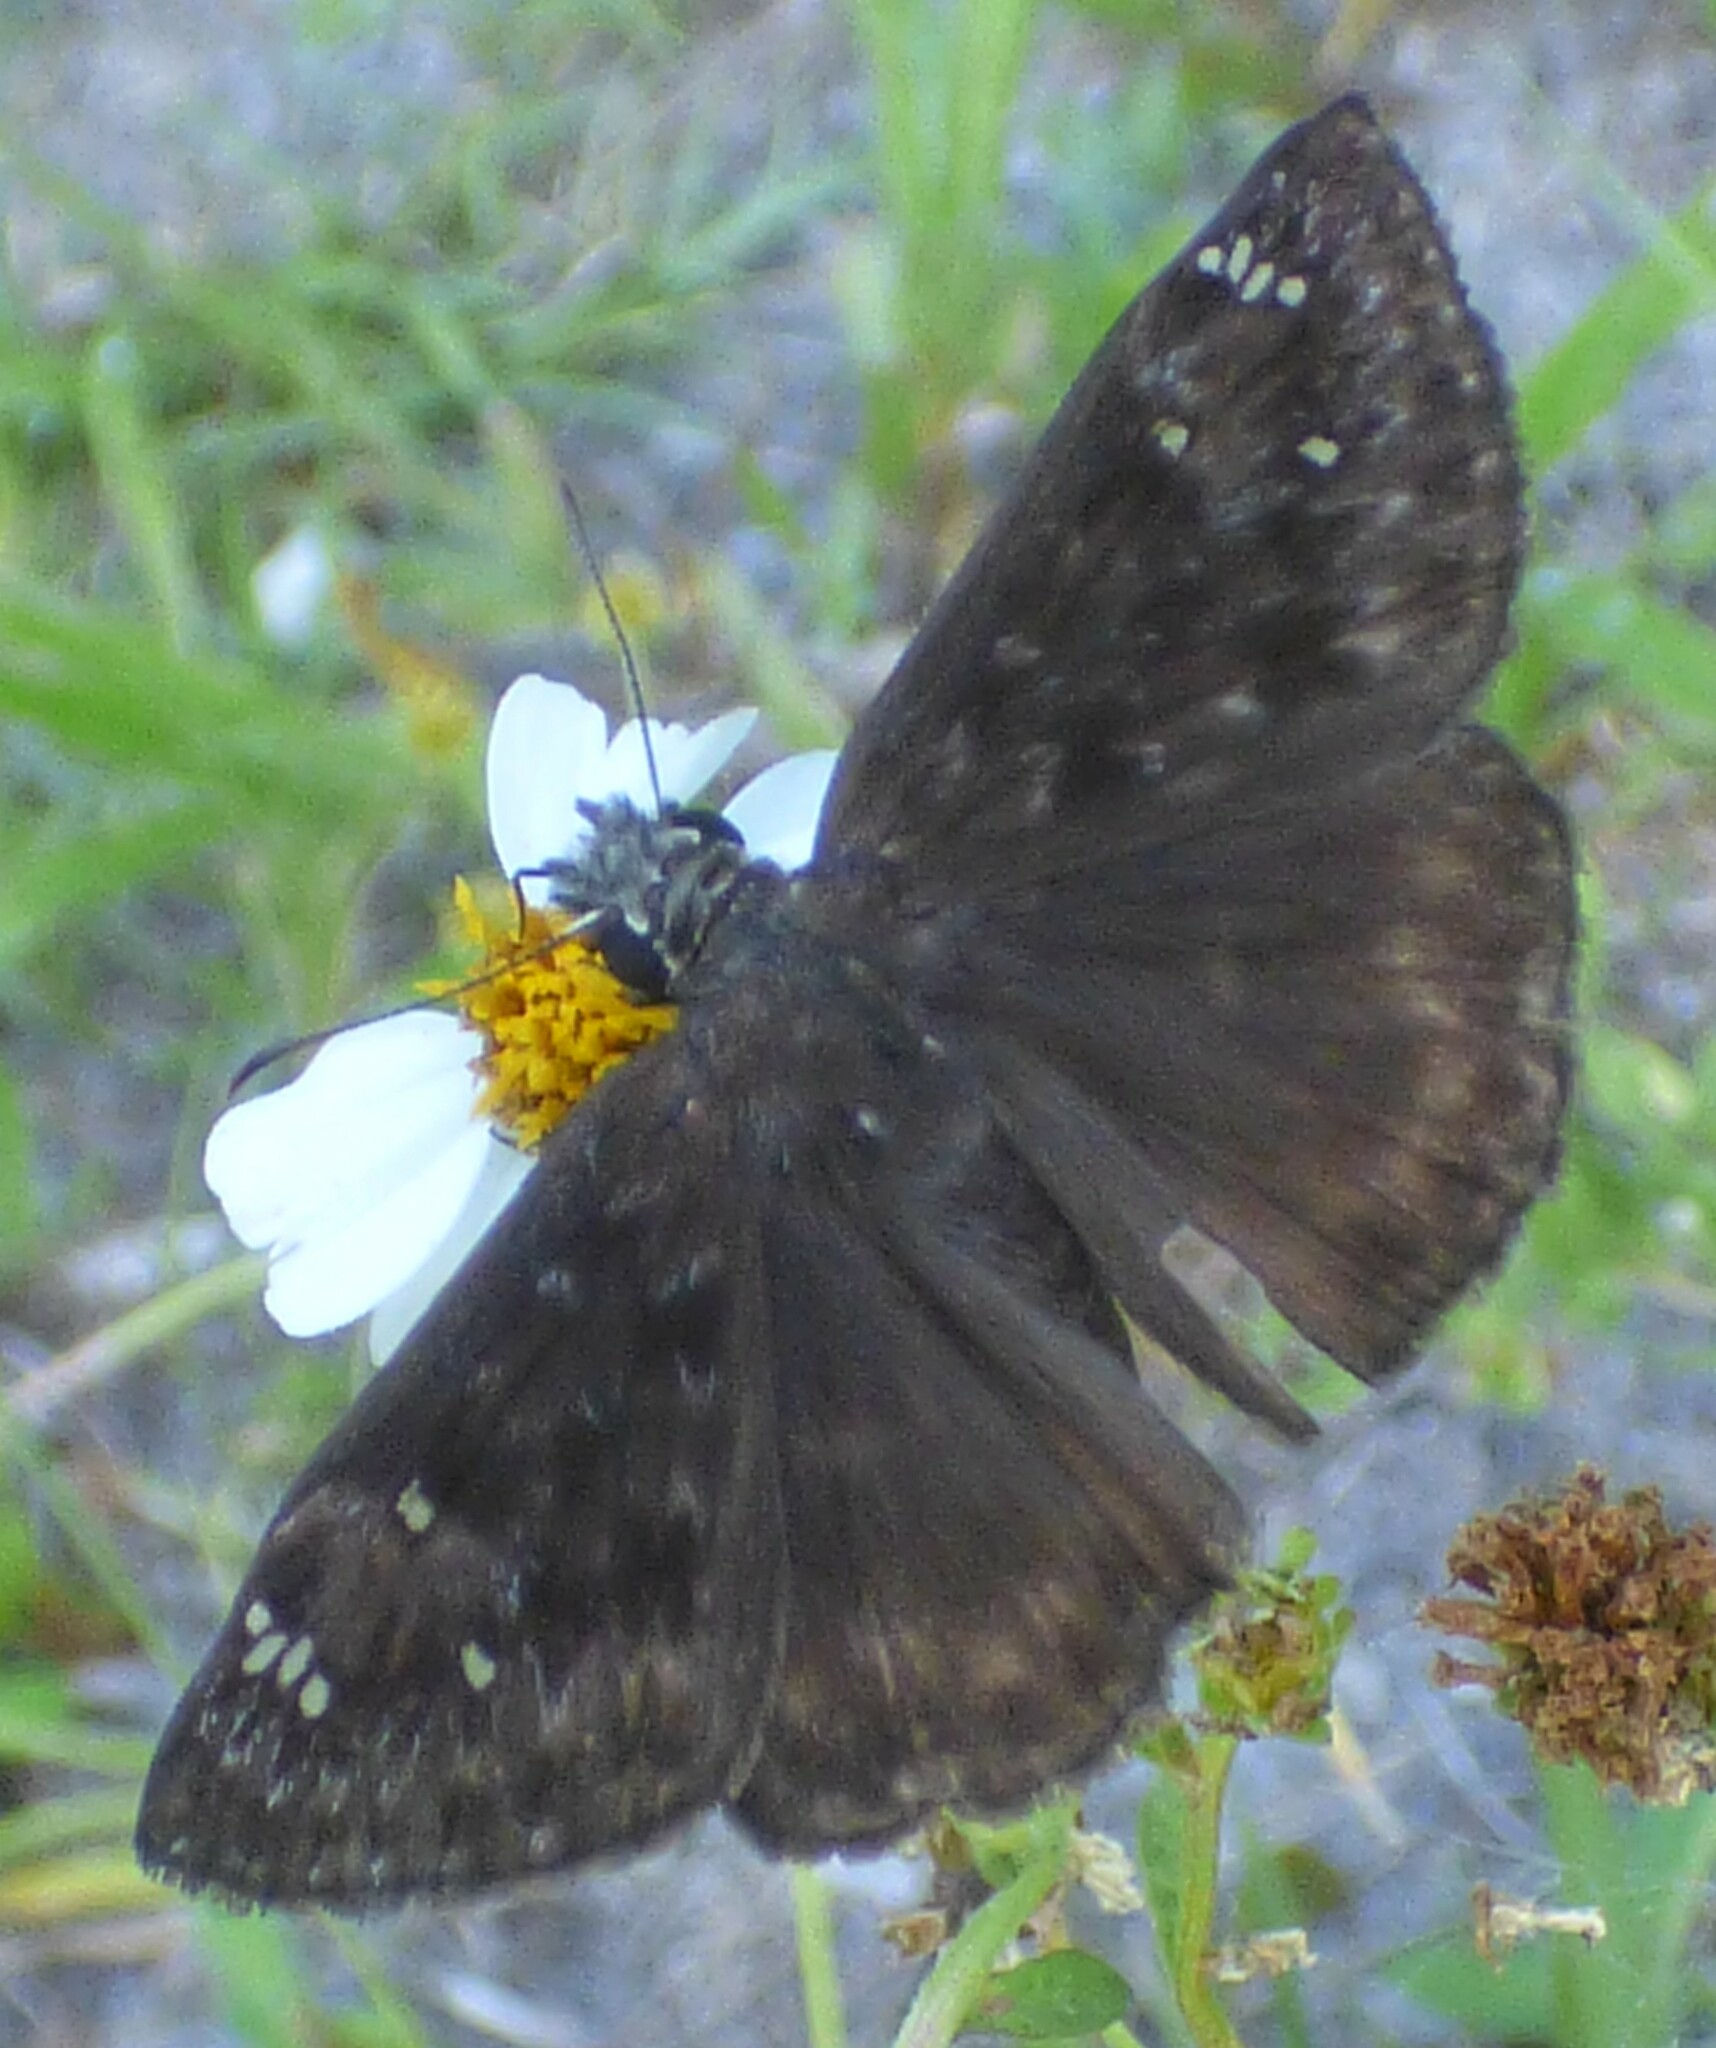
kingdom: Animalia
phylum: Arthropoda
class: Insecta
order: Lepidoptera
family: Hesperiidae
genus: Erynnis
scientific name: Erynnis horatius
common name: Horace's duskywing
